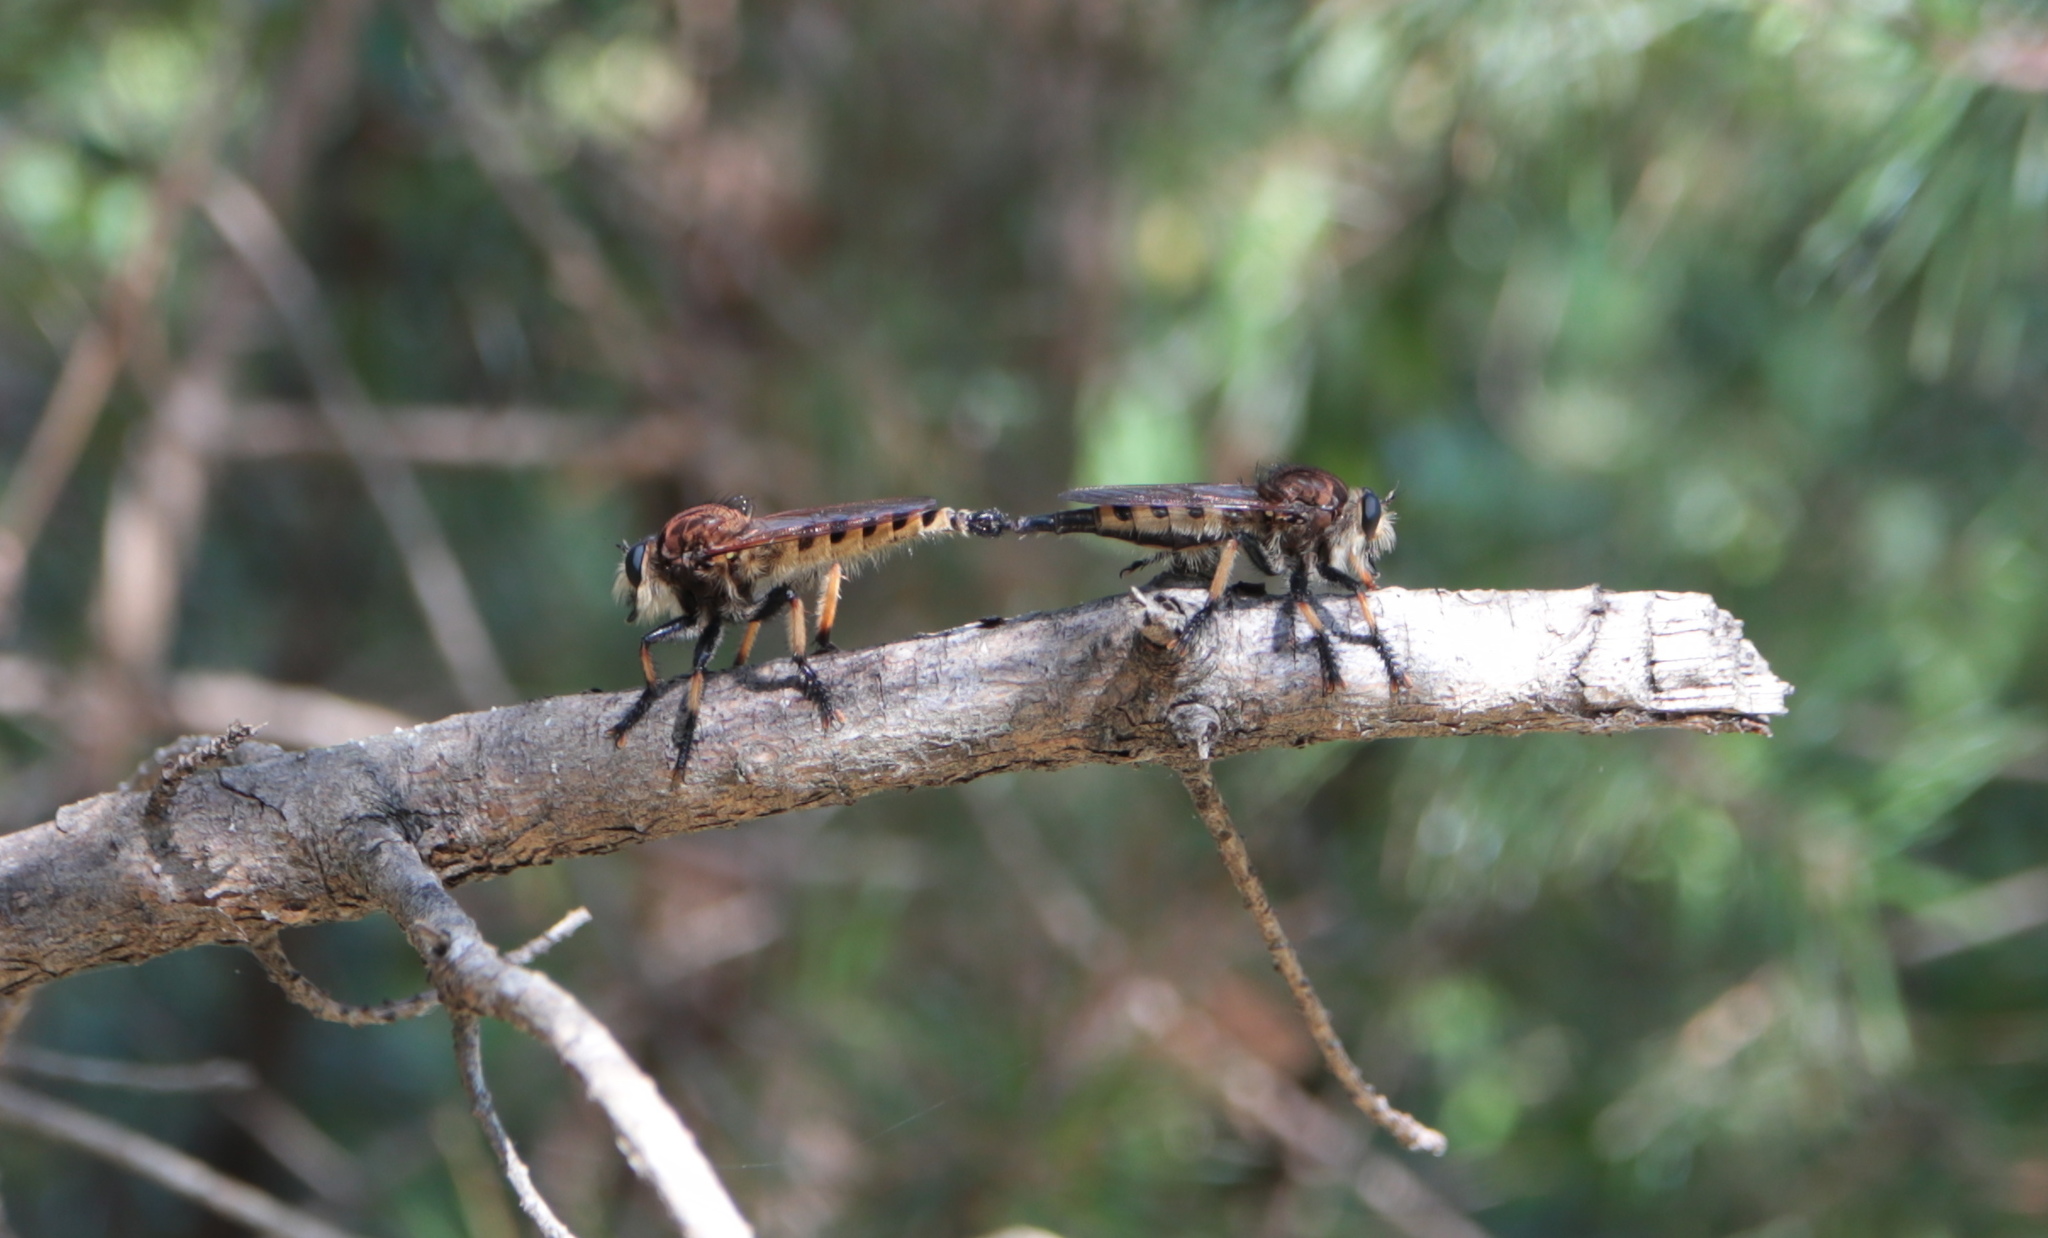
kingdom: Animalia
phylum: Arthropoda
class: Insecta
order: Diptera
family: Asilidae
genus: Promachus
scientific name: Promachus rufipes
